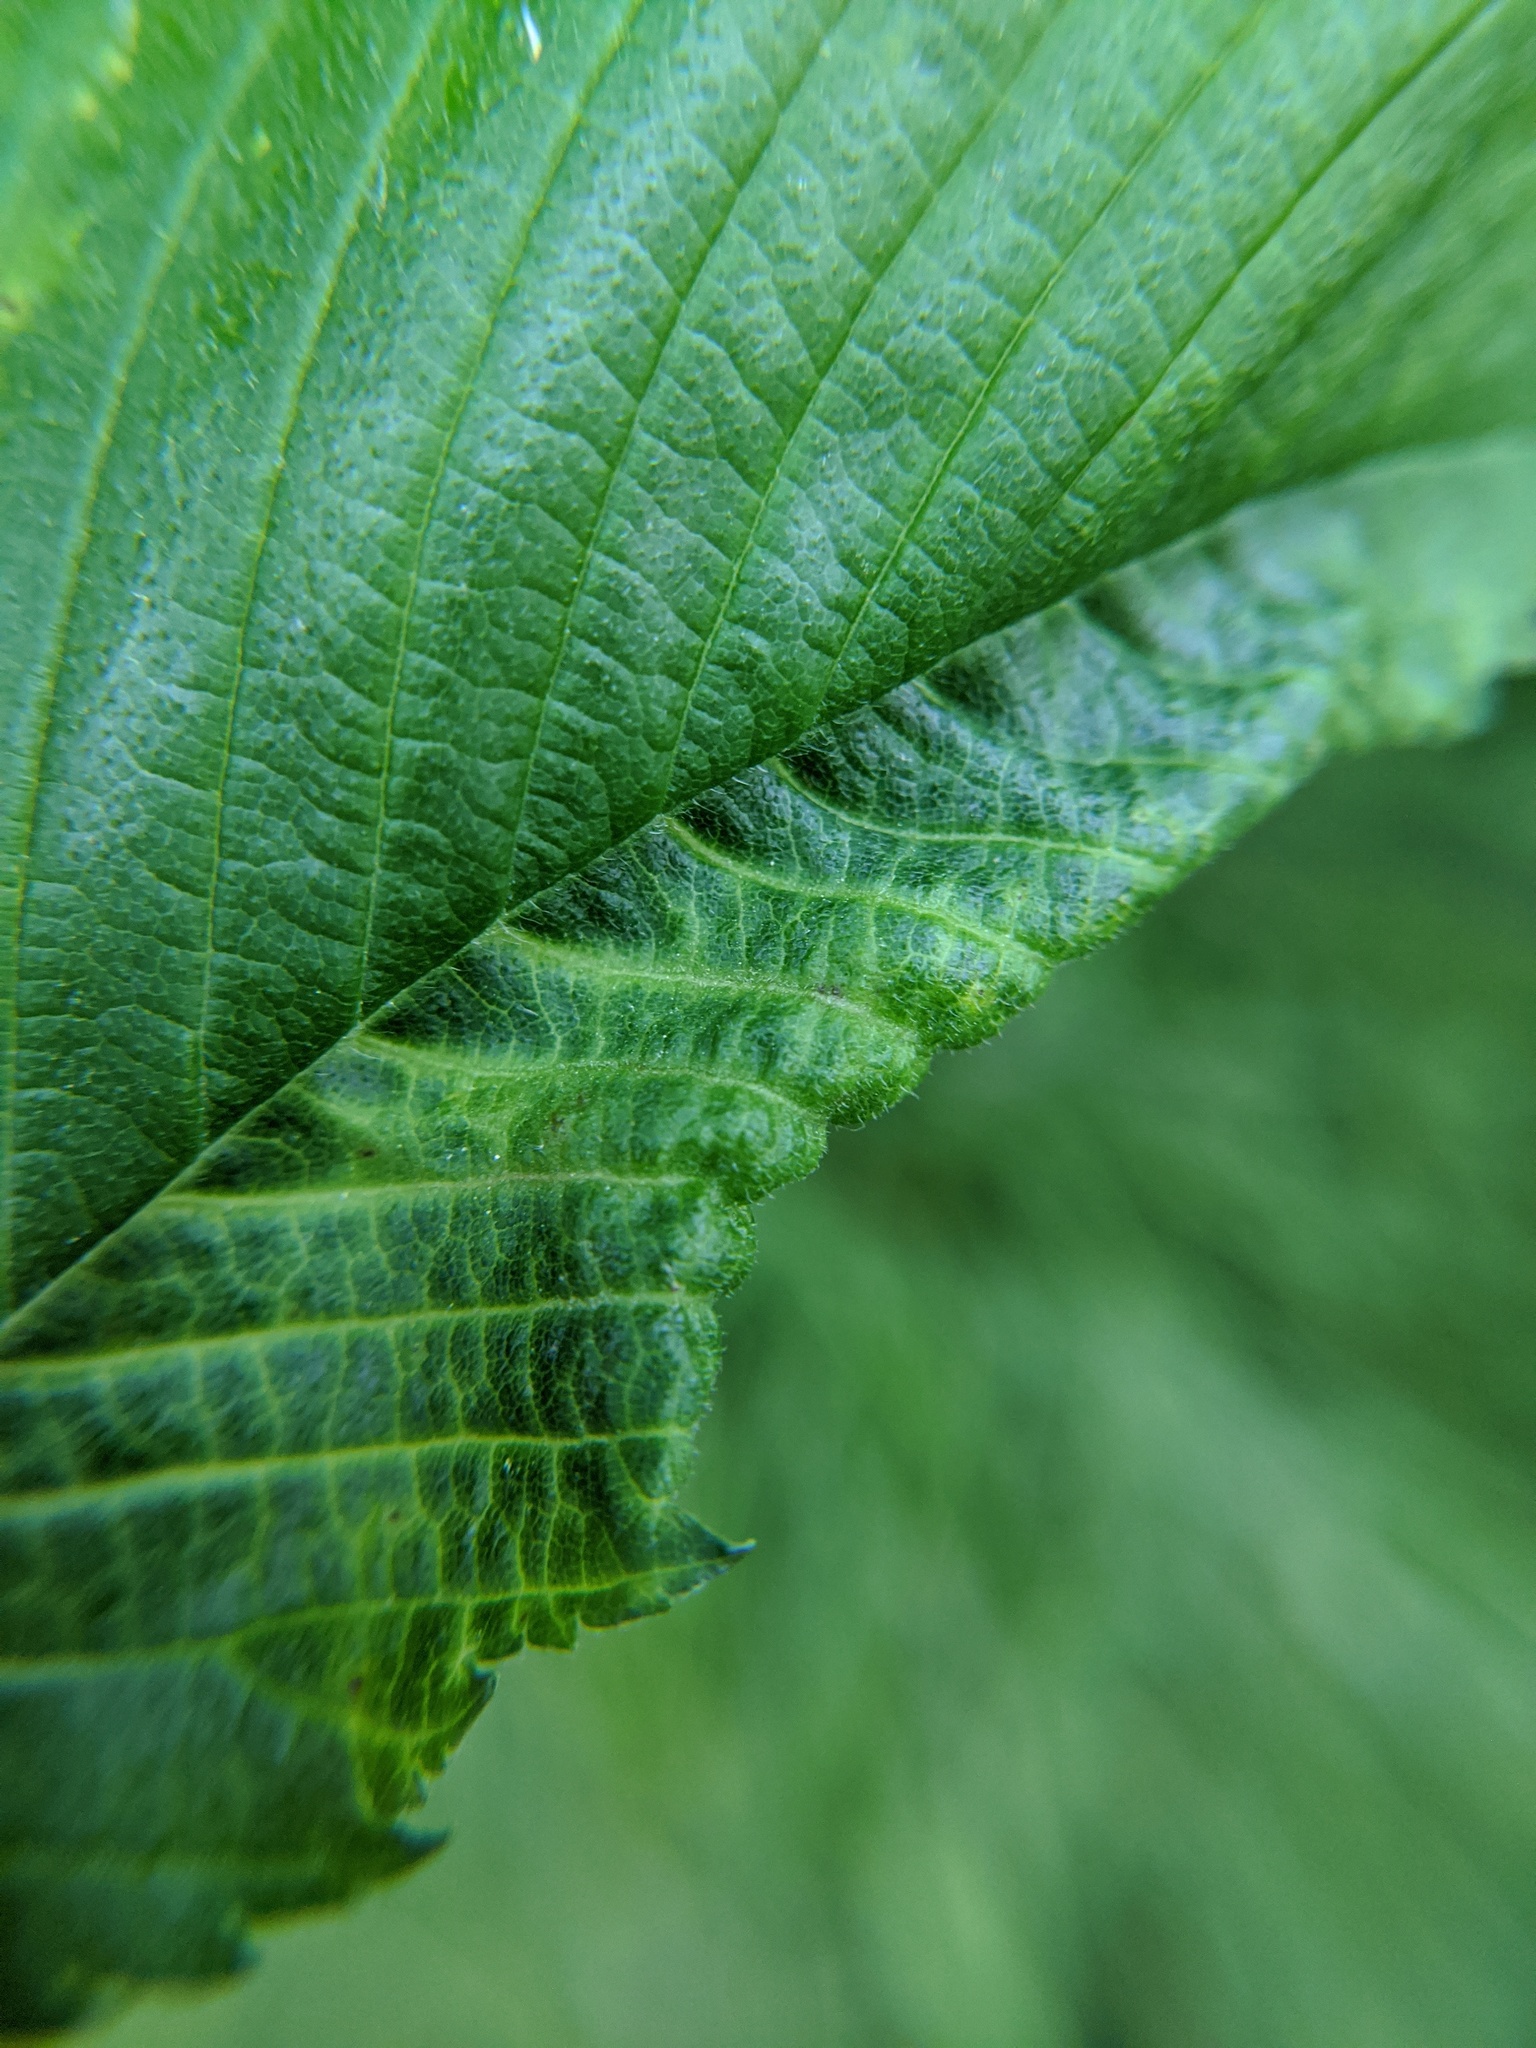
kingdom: Animalia
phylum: Arthropoda
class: Insecta
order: Hemiptera
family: Aphididae
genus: Eriosoma
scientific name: Eriosoma americanum
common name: Woolly elm aphid
